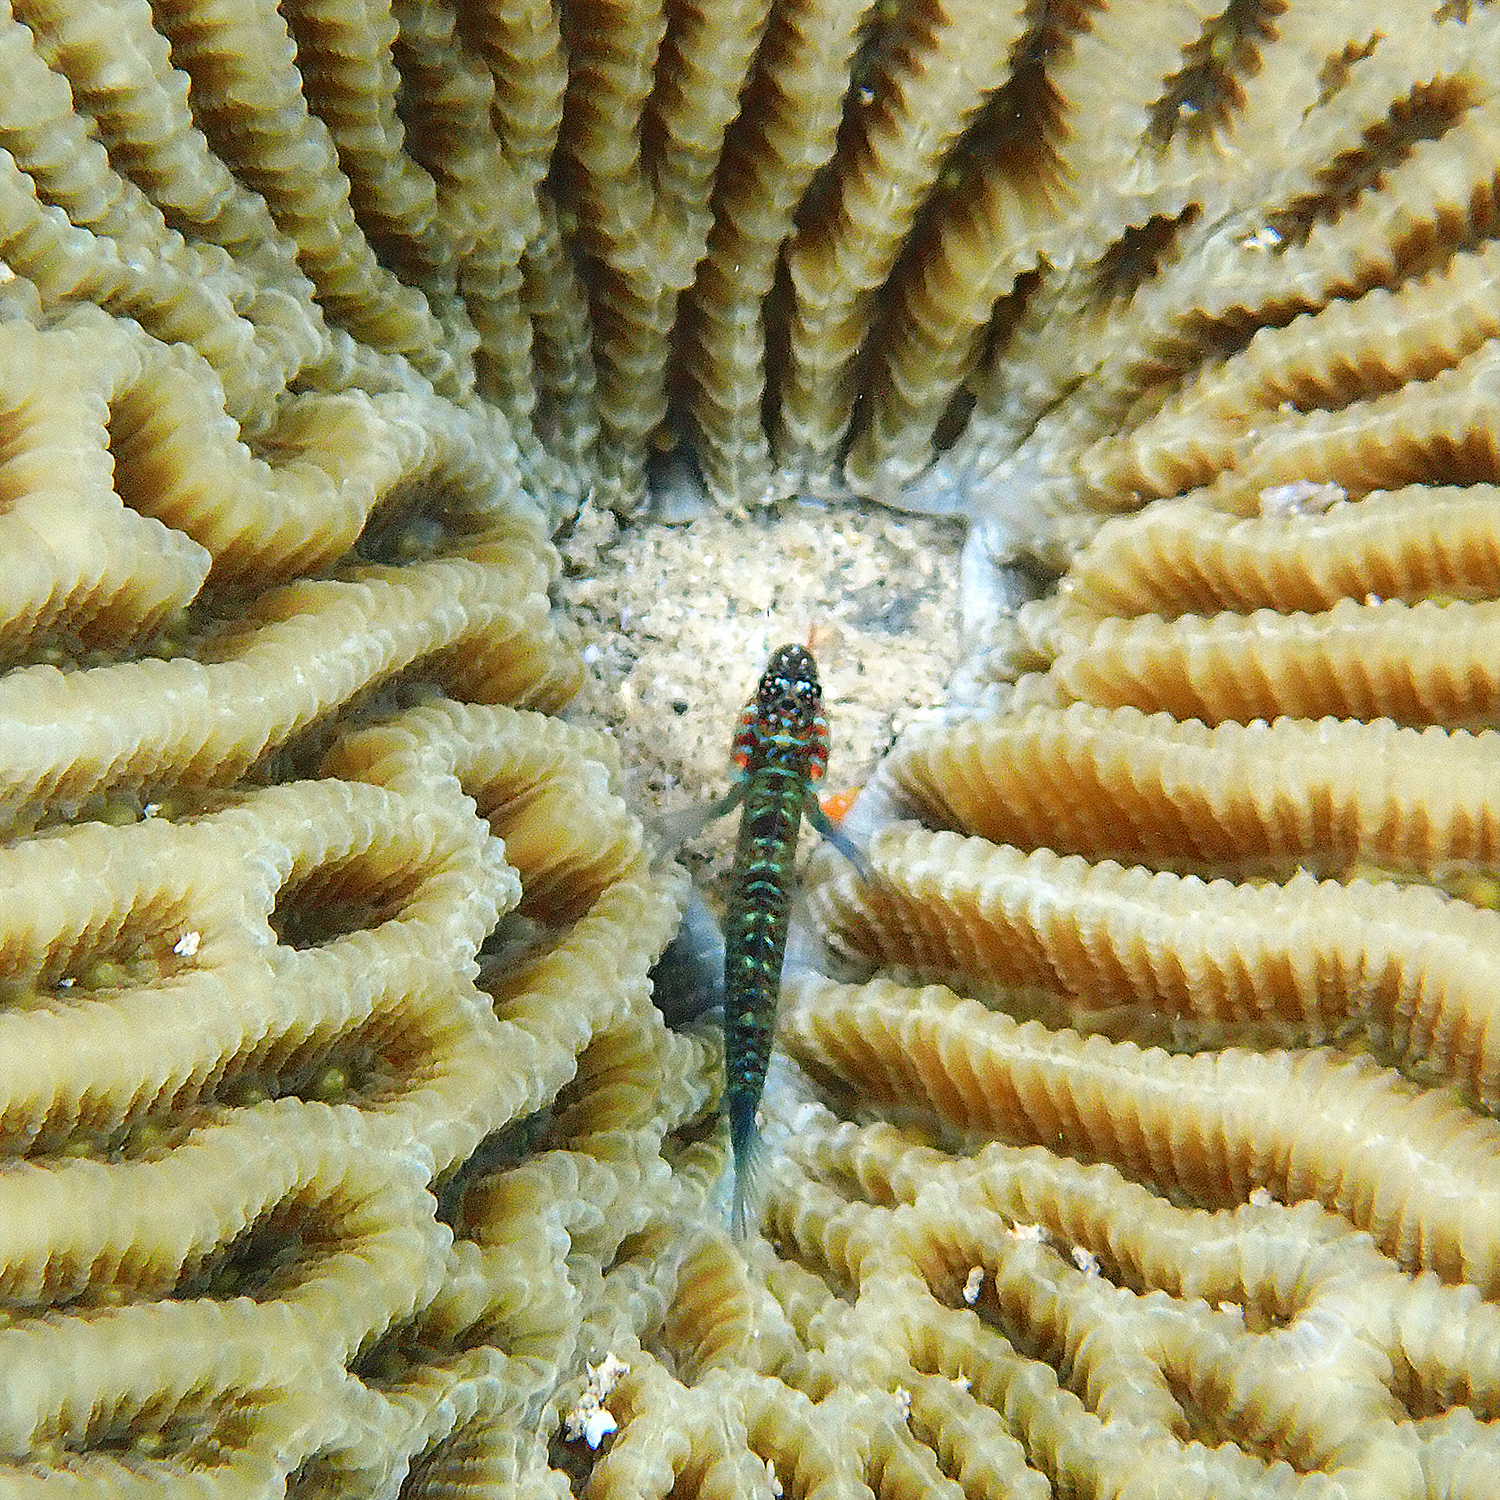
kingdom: Animalia
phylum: Chordata
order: Perciformes
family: Gobiidae
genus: Eviota
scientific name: Eviota hoesei
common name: Doug's eviota
